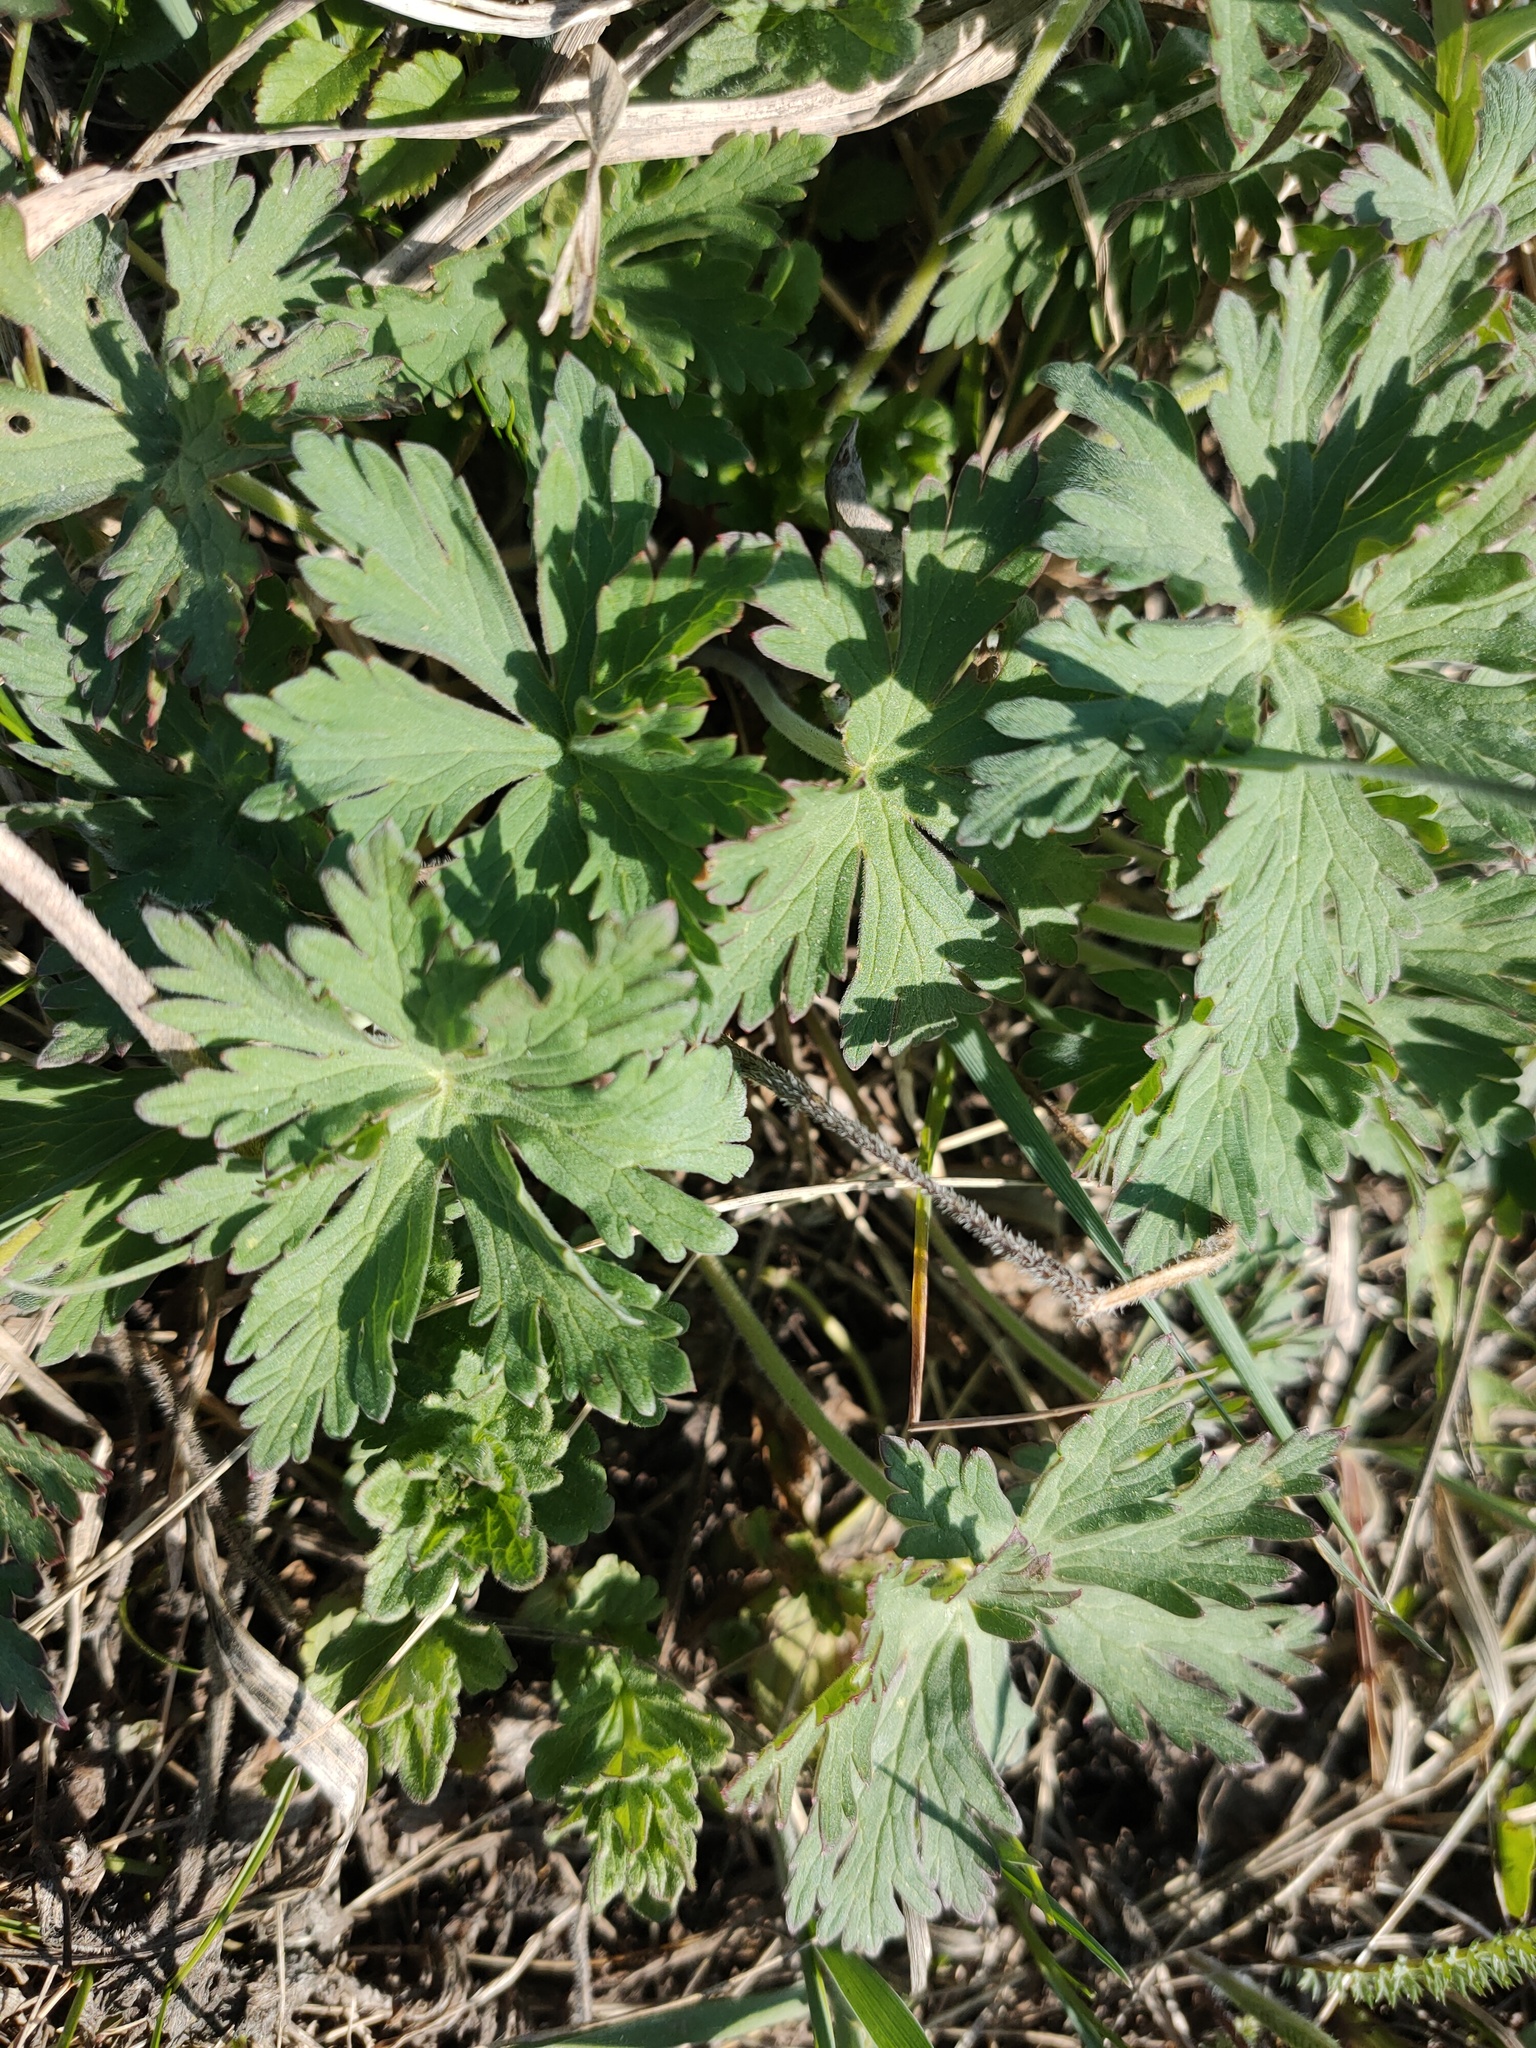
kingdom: Plantae
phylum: Tracheophyta
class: Magnoliopsida
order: Geraniales
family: Geraniaceae
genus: Geranium
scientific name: Geranium pratense
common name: Meadow crane's-bill
